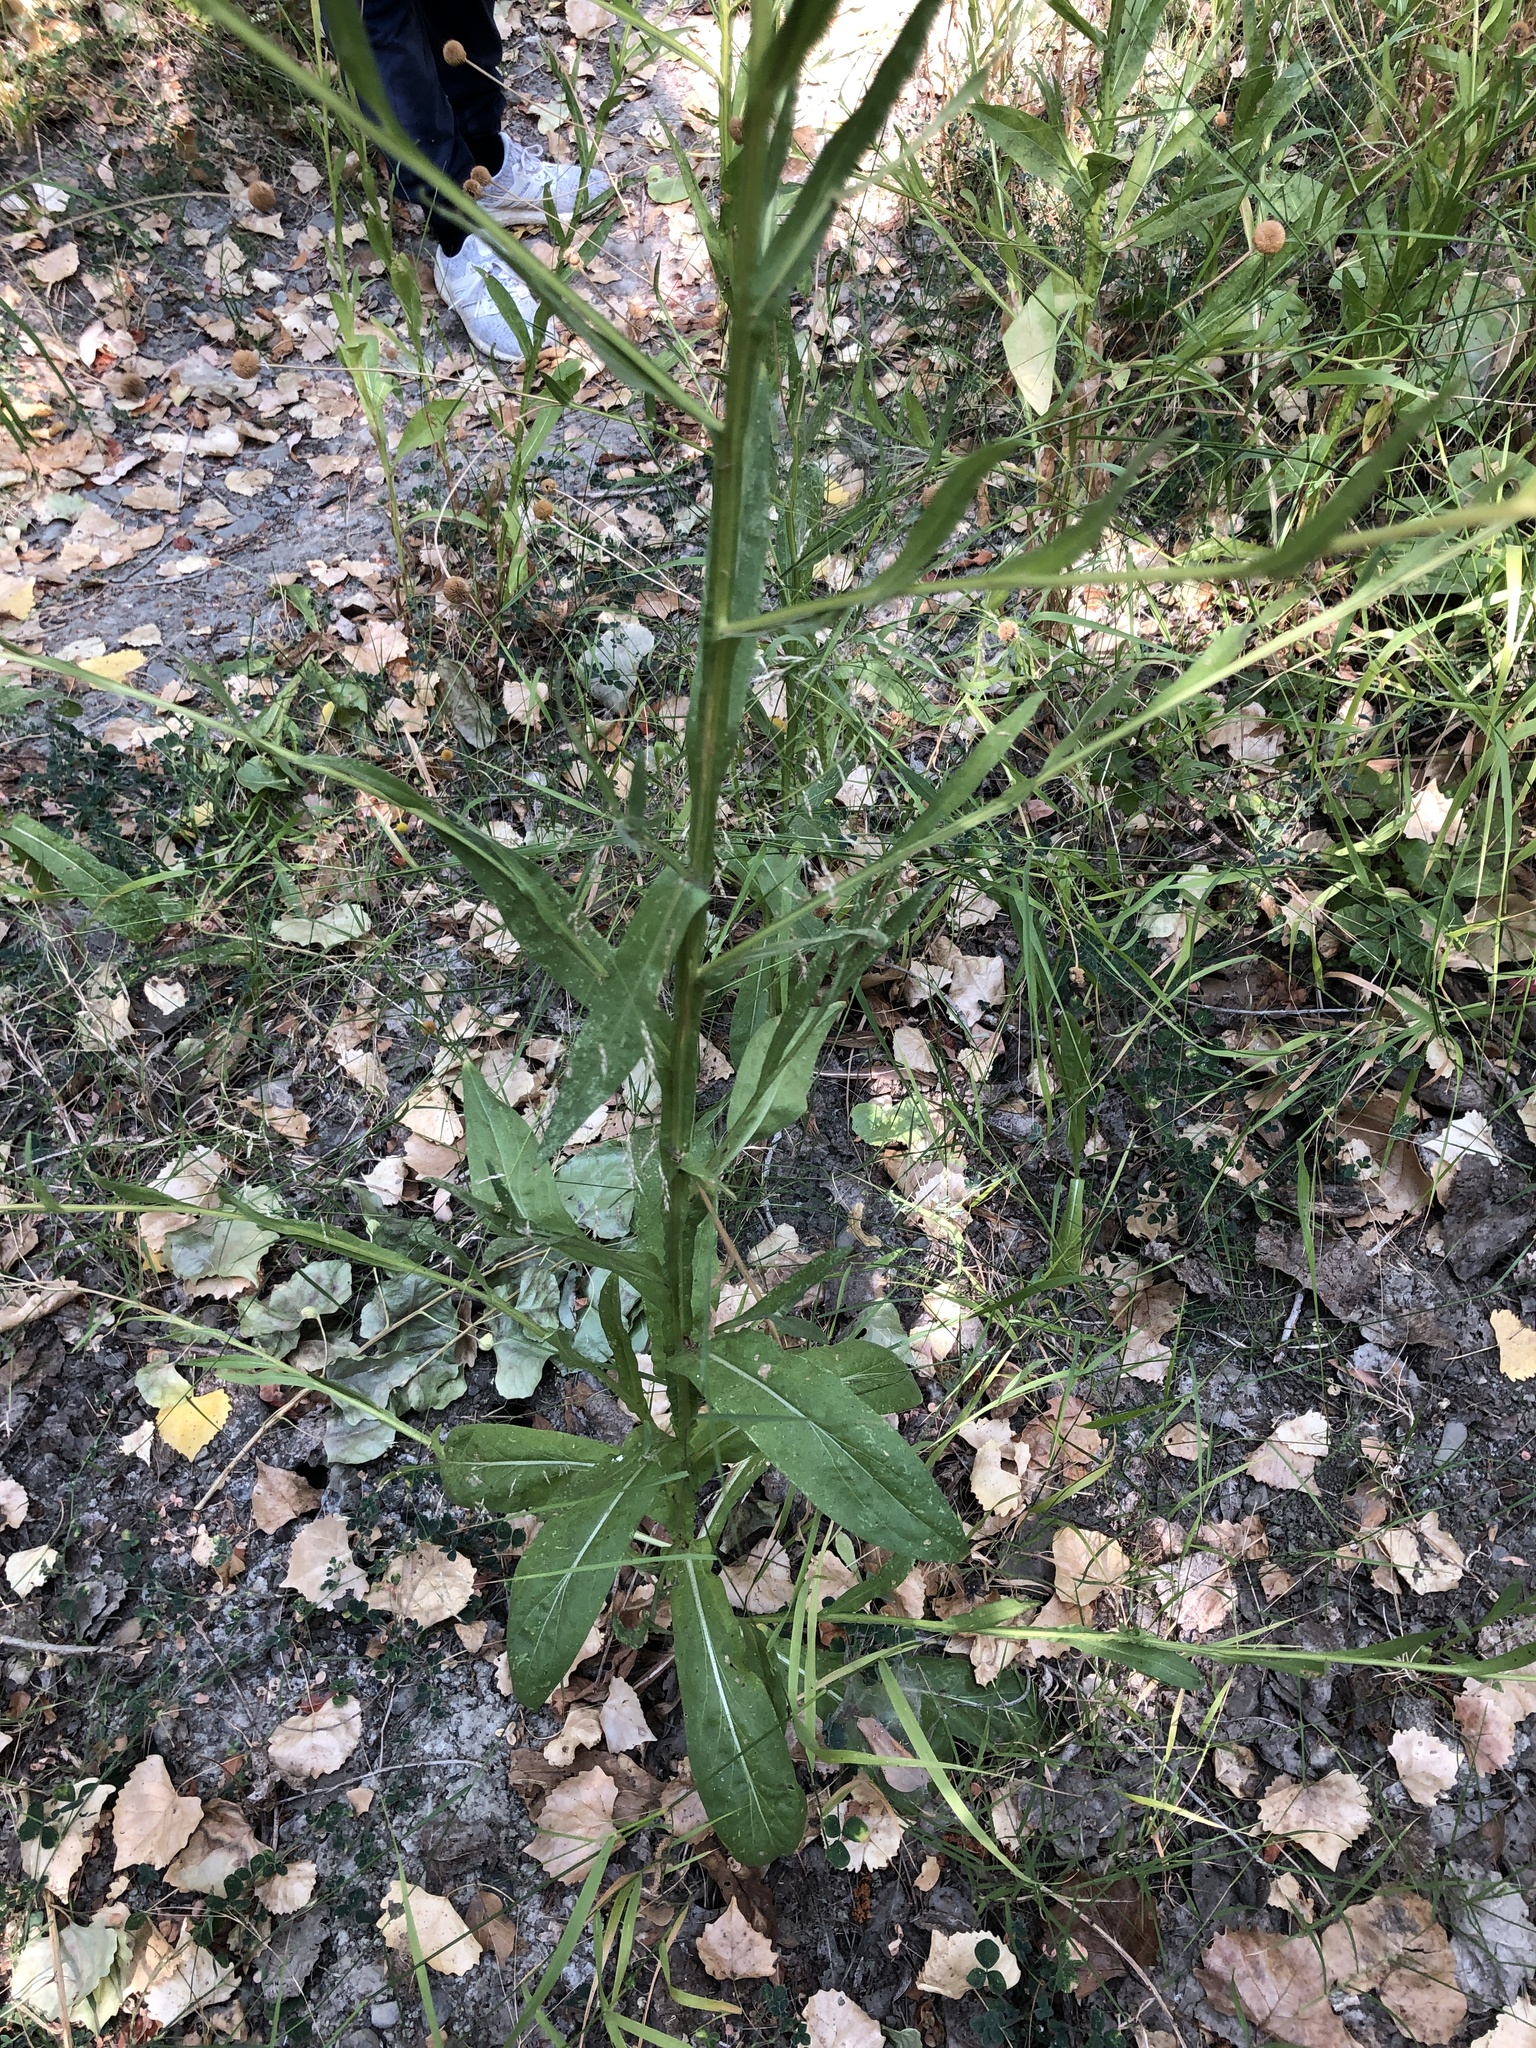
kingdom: Plantae
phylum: Tracheophyta
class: Magnoliopsida
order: Asterales
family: Asteraceae
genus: Helenium
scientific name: Helenium puberulum
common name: Sneezewort
